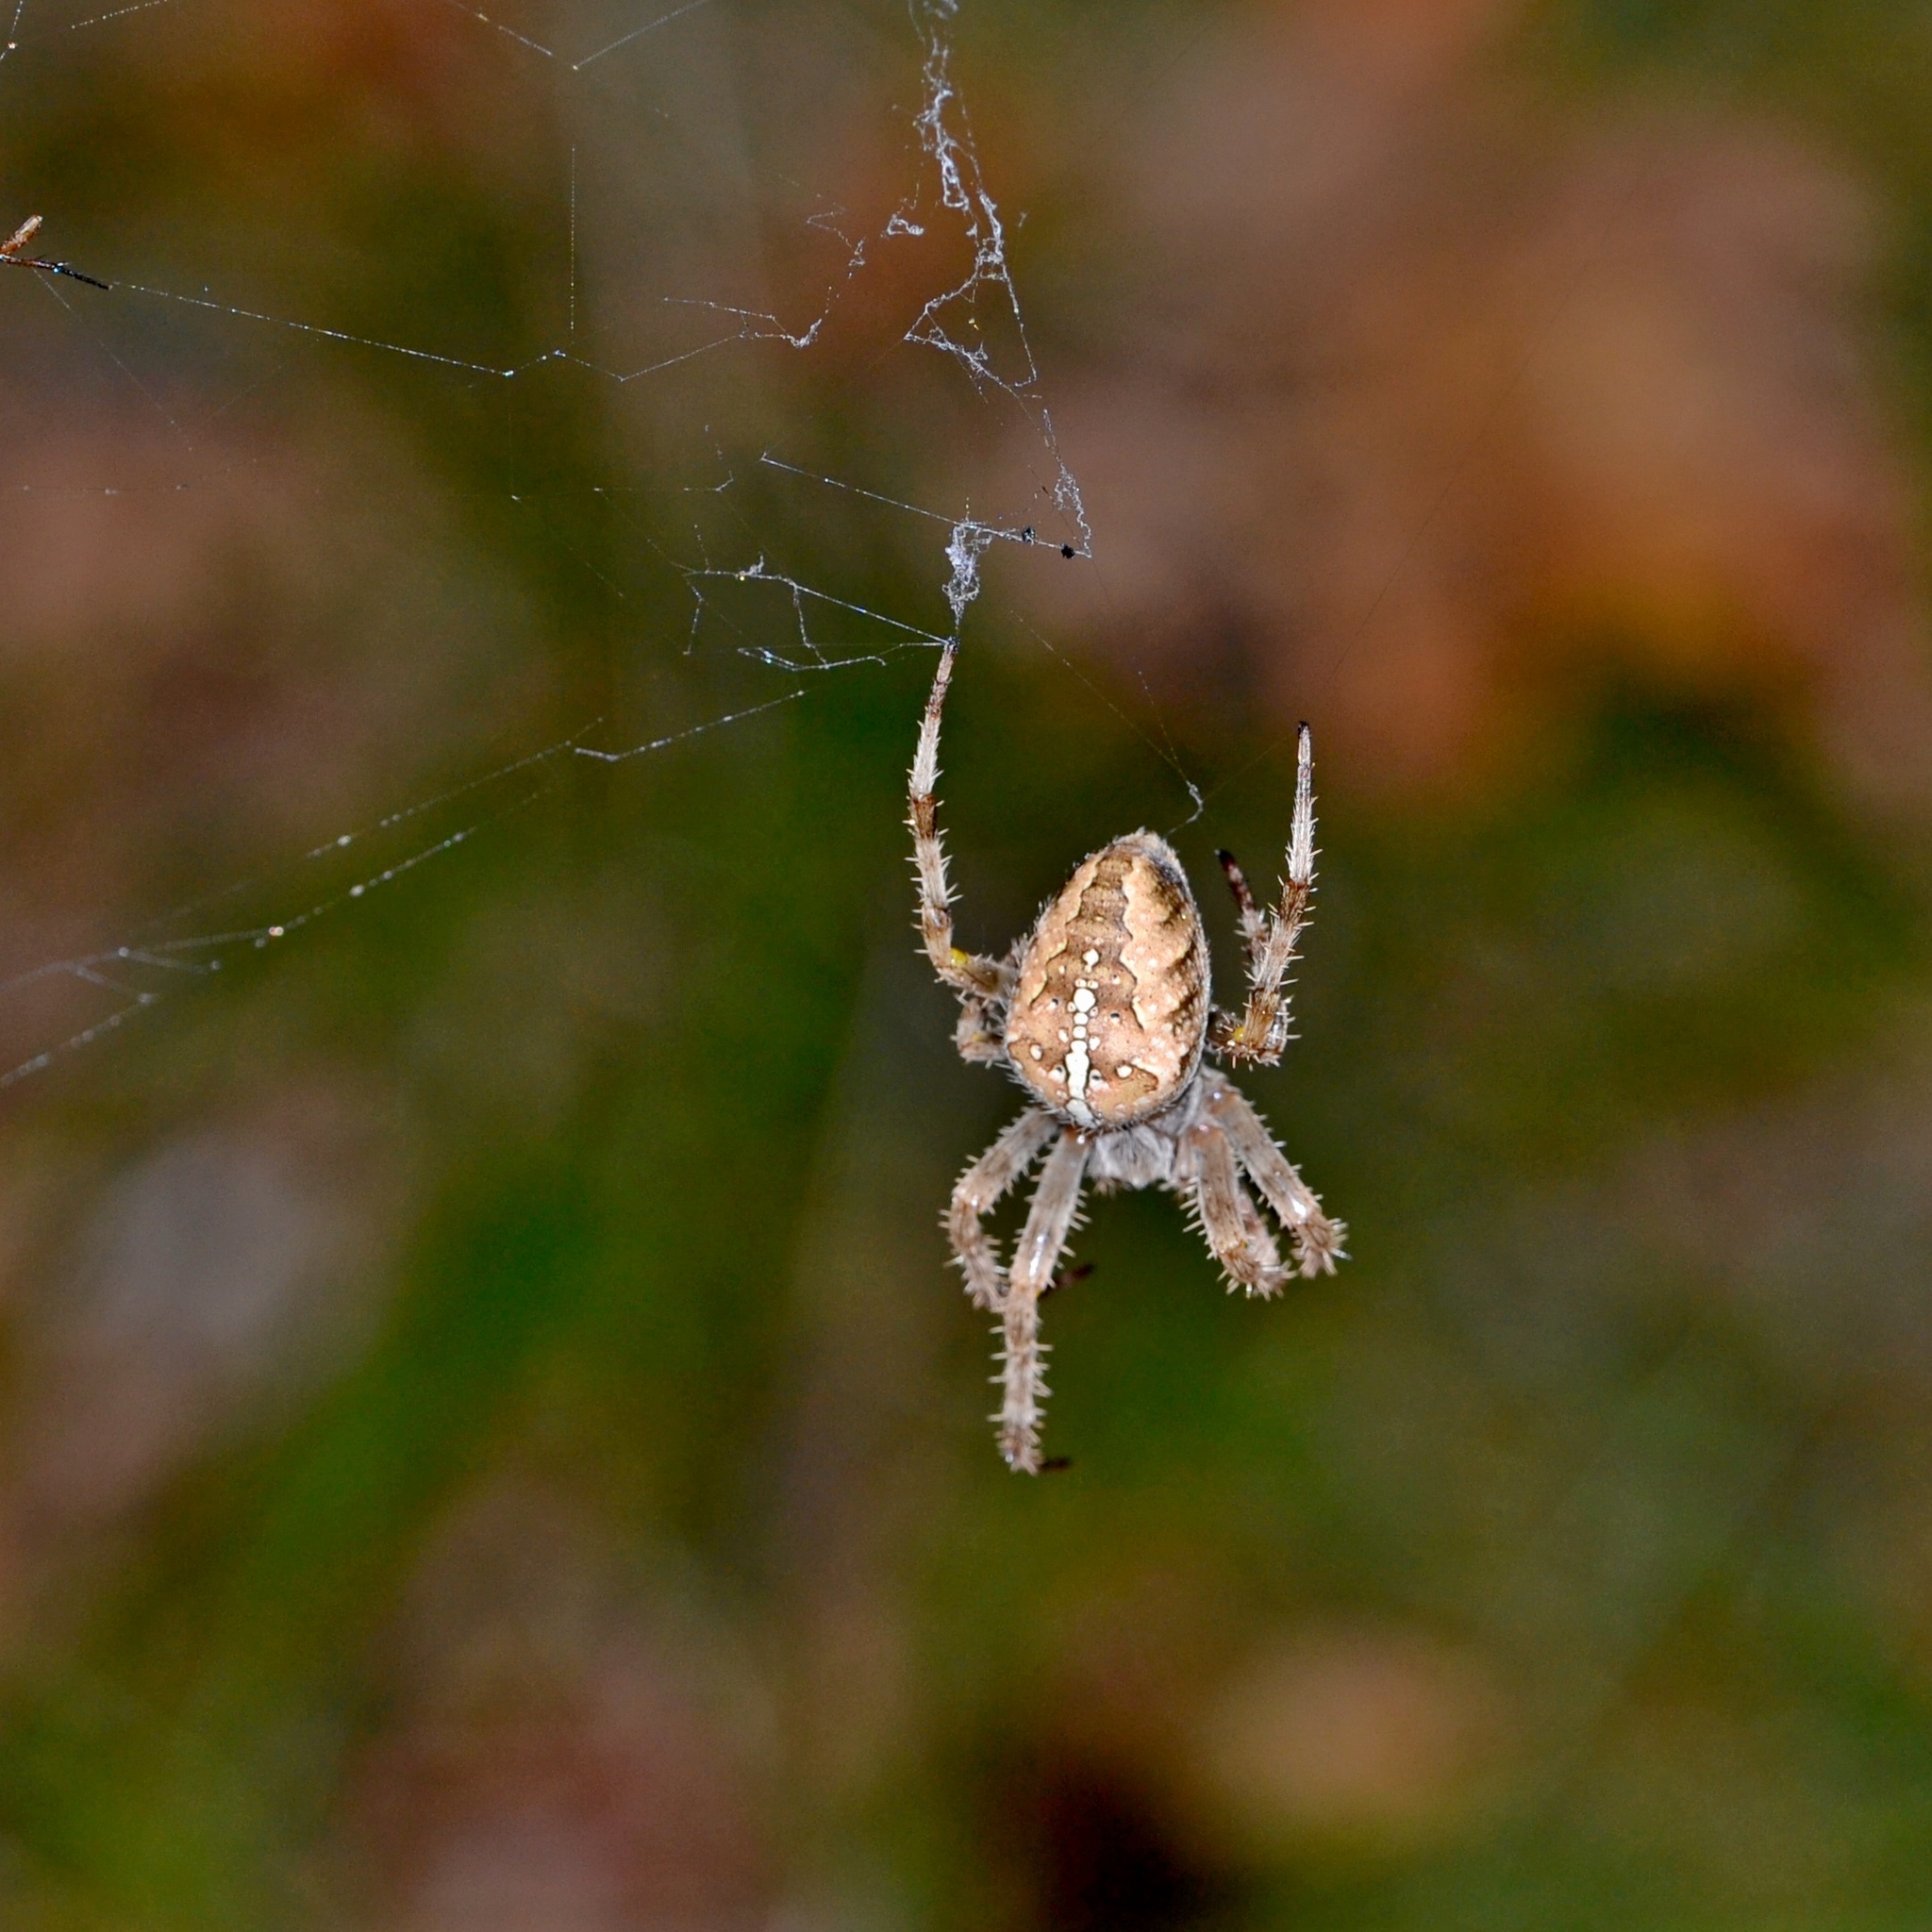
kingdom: Animalia
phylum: Arthropoda
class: Arachnida
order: Araneae
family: Araneidae
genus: Araneus
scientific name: Araneus diadematus
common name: Cross orbweaver
